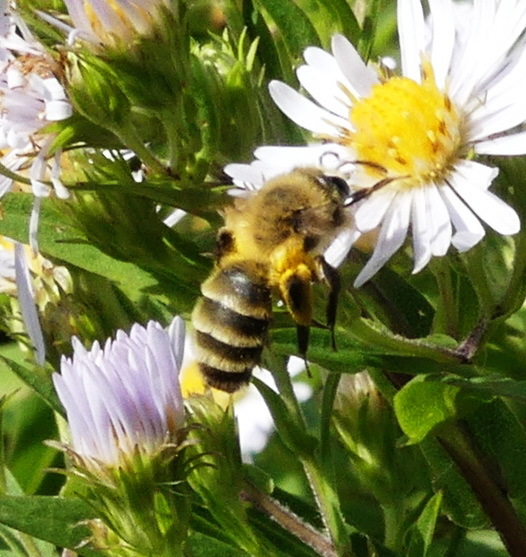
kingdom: Animalia
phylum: Arthropoda
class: Insecta
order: Hymenoptera
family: Andrenidae
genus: Andrena
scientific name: Andrena hirticincta
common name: Hairy-banded mining bee
